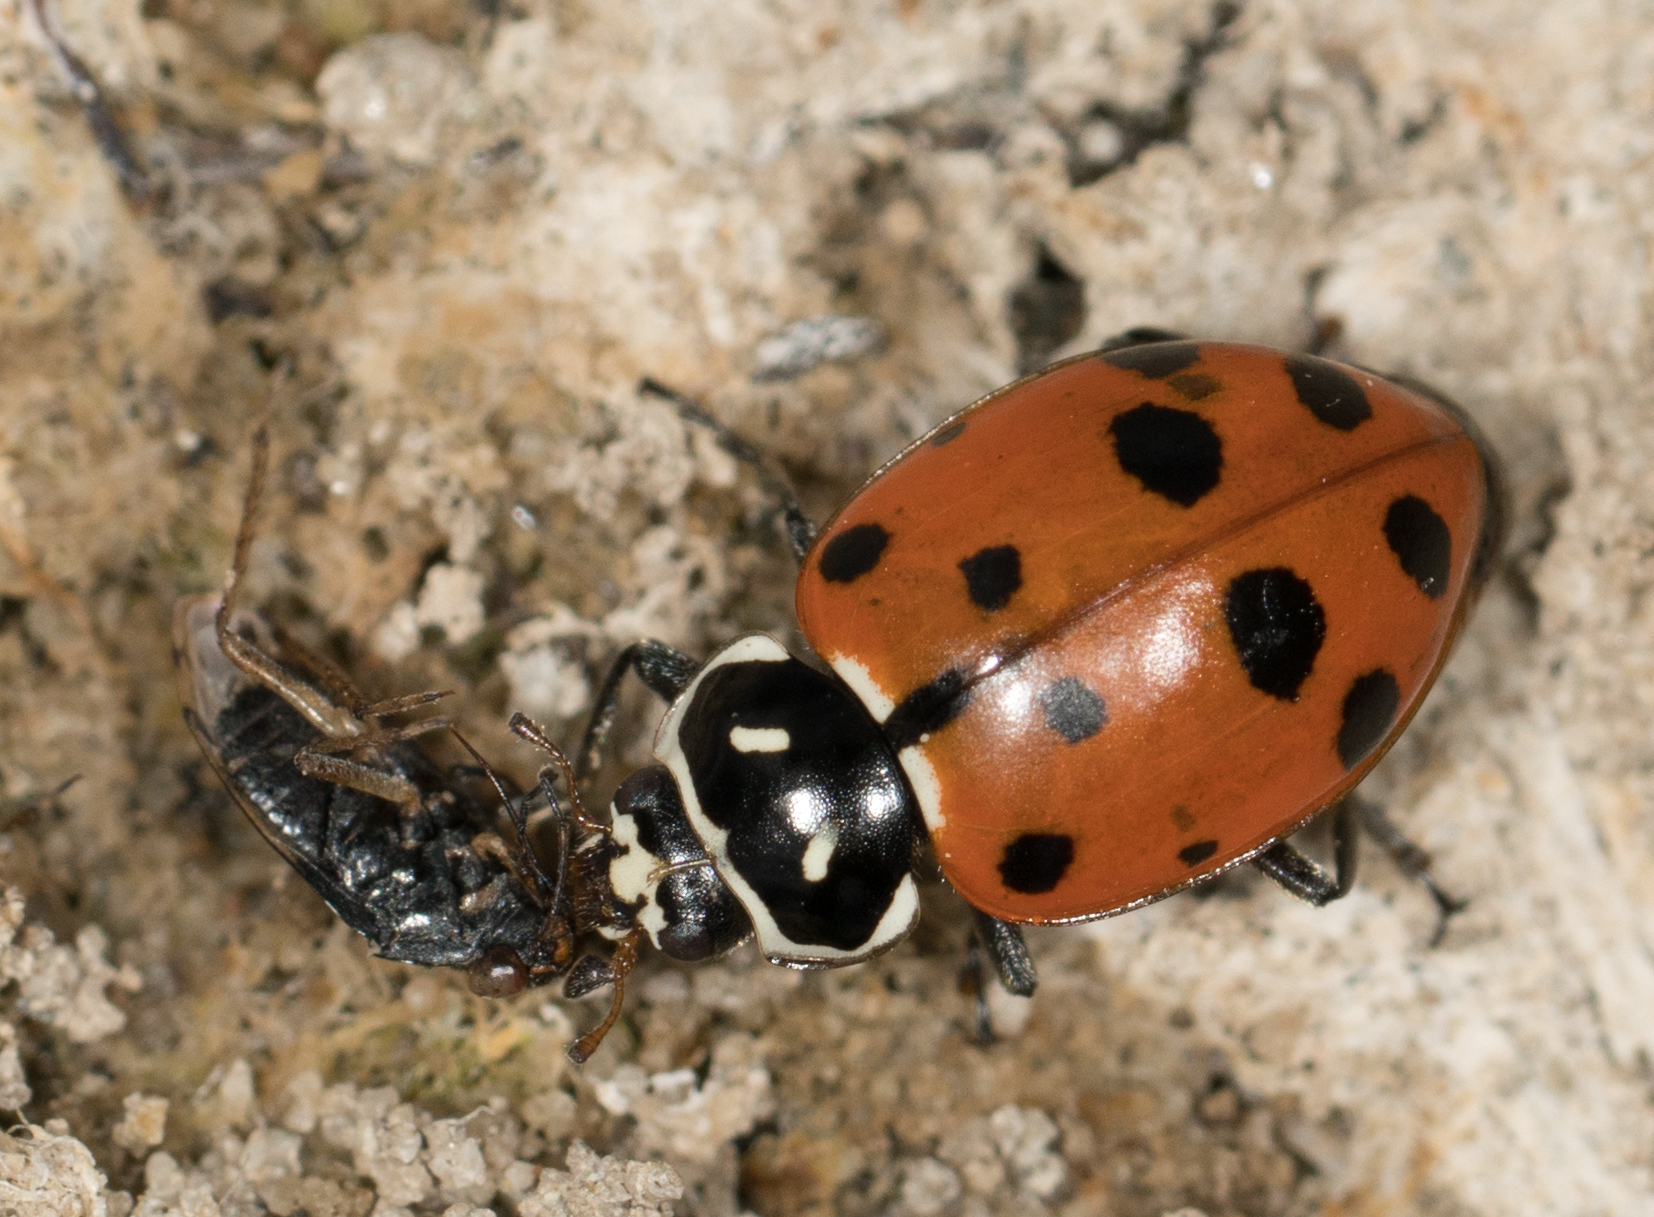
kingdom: Animalia
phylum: Arthropoda
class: Insecta
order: Coleoptera
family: Coccinellidae
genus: Hippodamia
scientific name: Hippodamia convergens
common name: Convergent lady beetle
